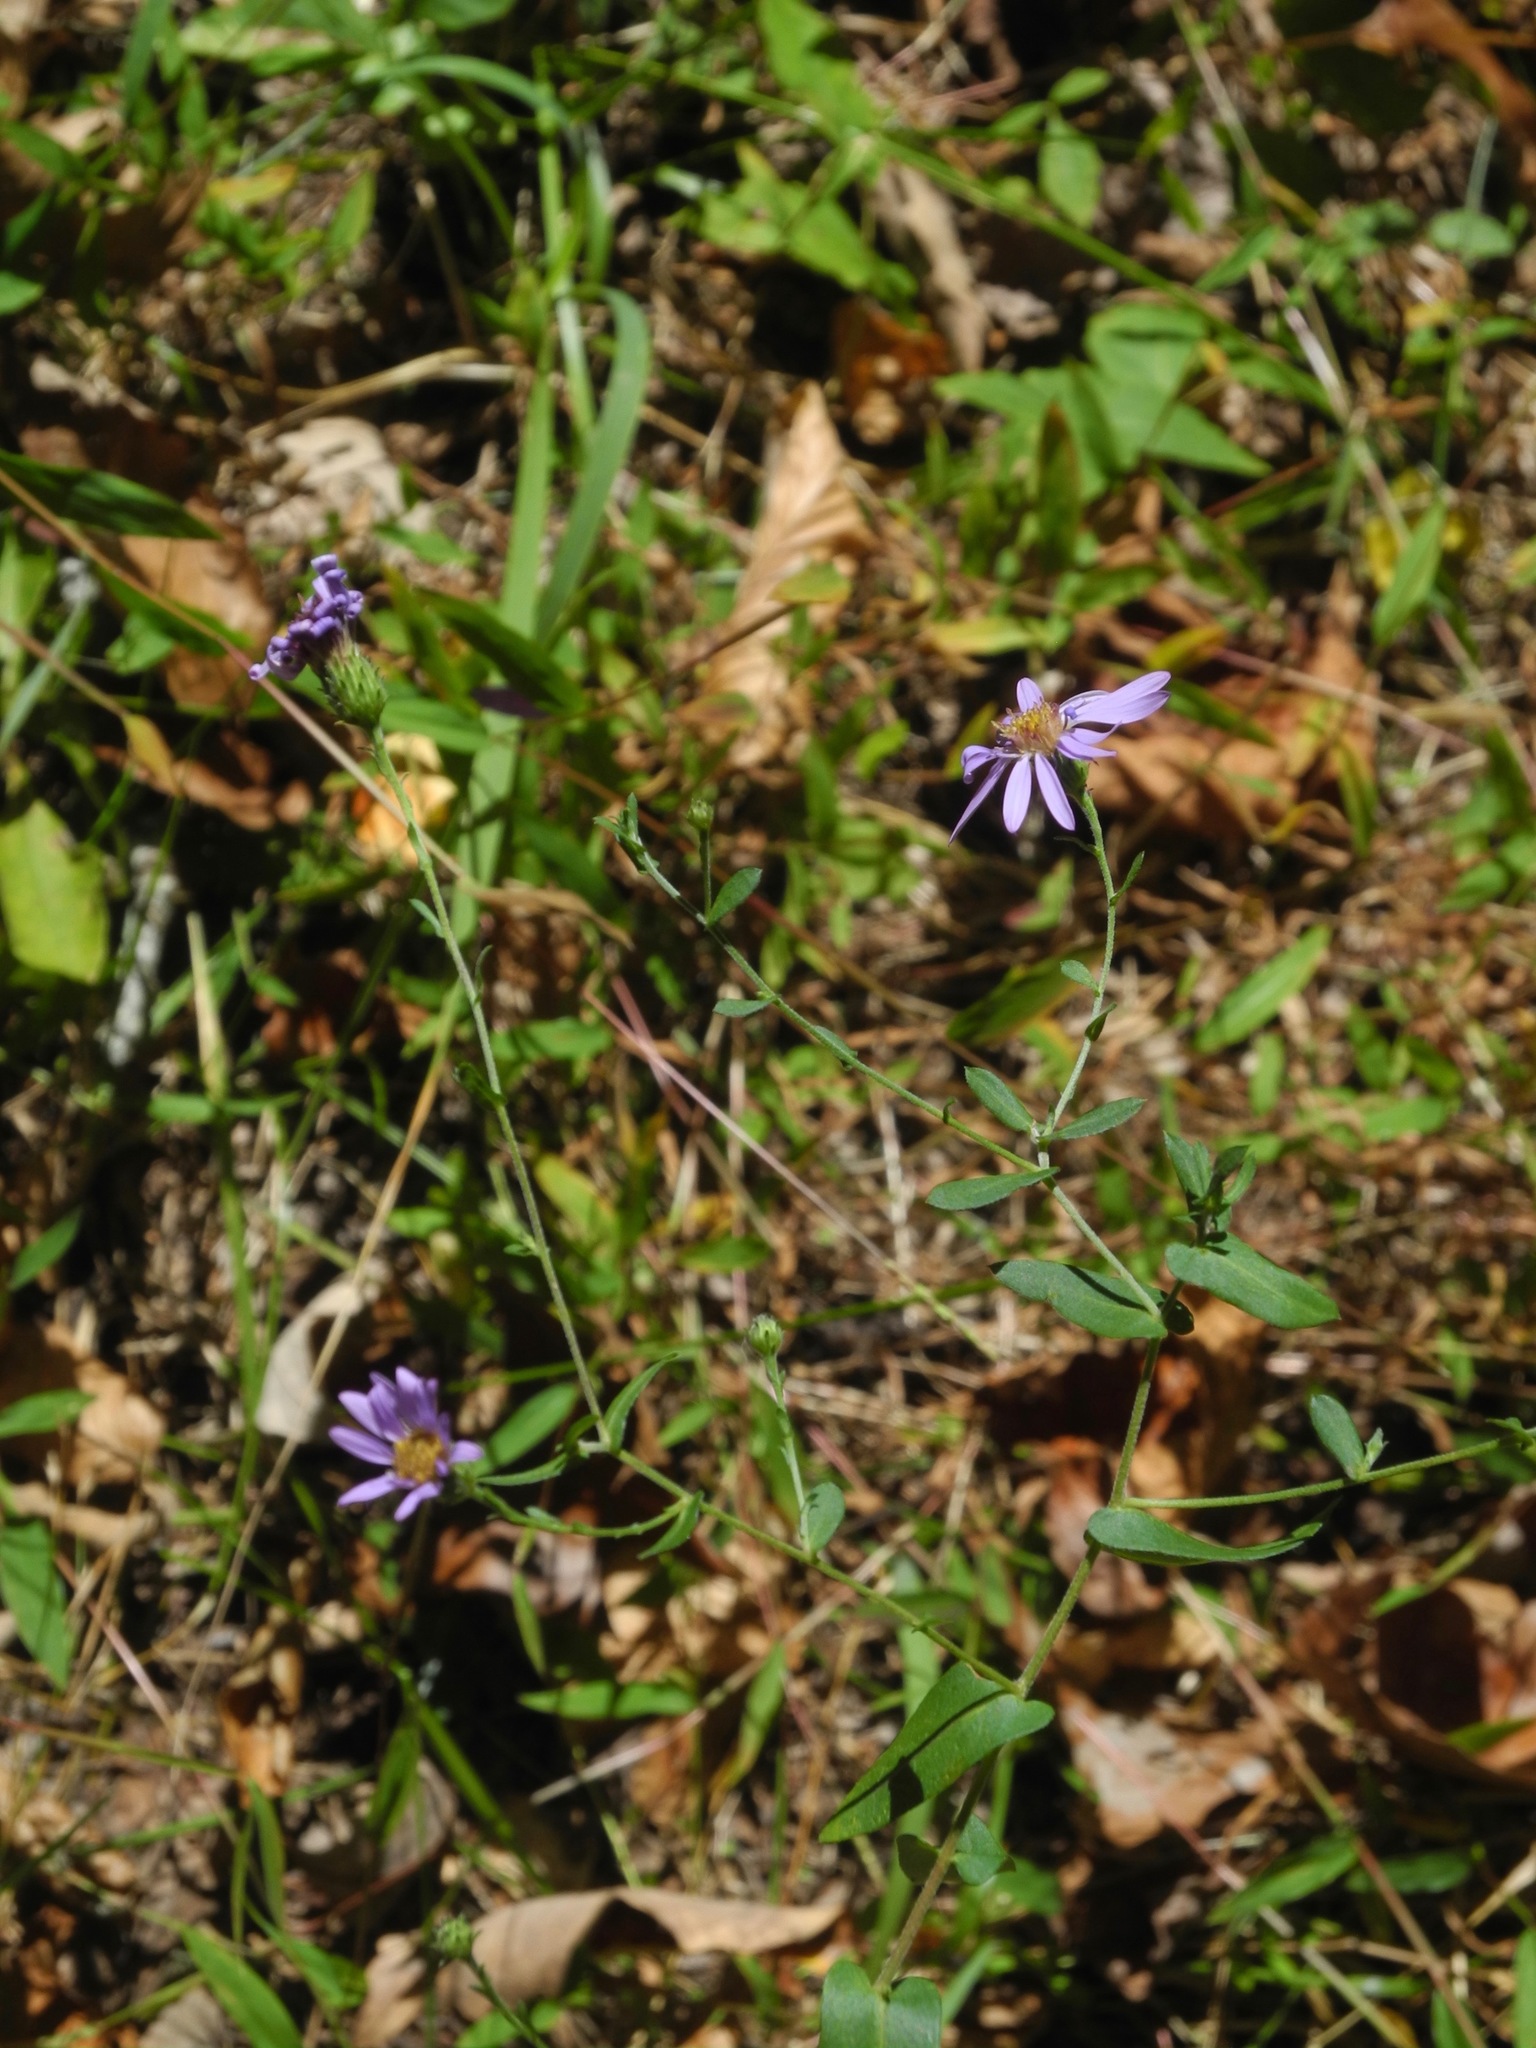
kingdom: Plantae
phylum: Tracheophyta
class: Magnoliopsida
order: Asterales
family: Asteraceae
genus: Symphyotrichum
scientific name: Symphyotrichum patens
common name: Late purple aster
